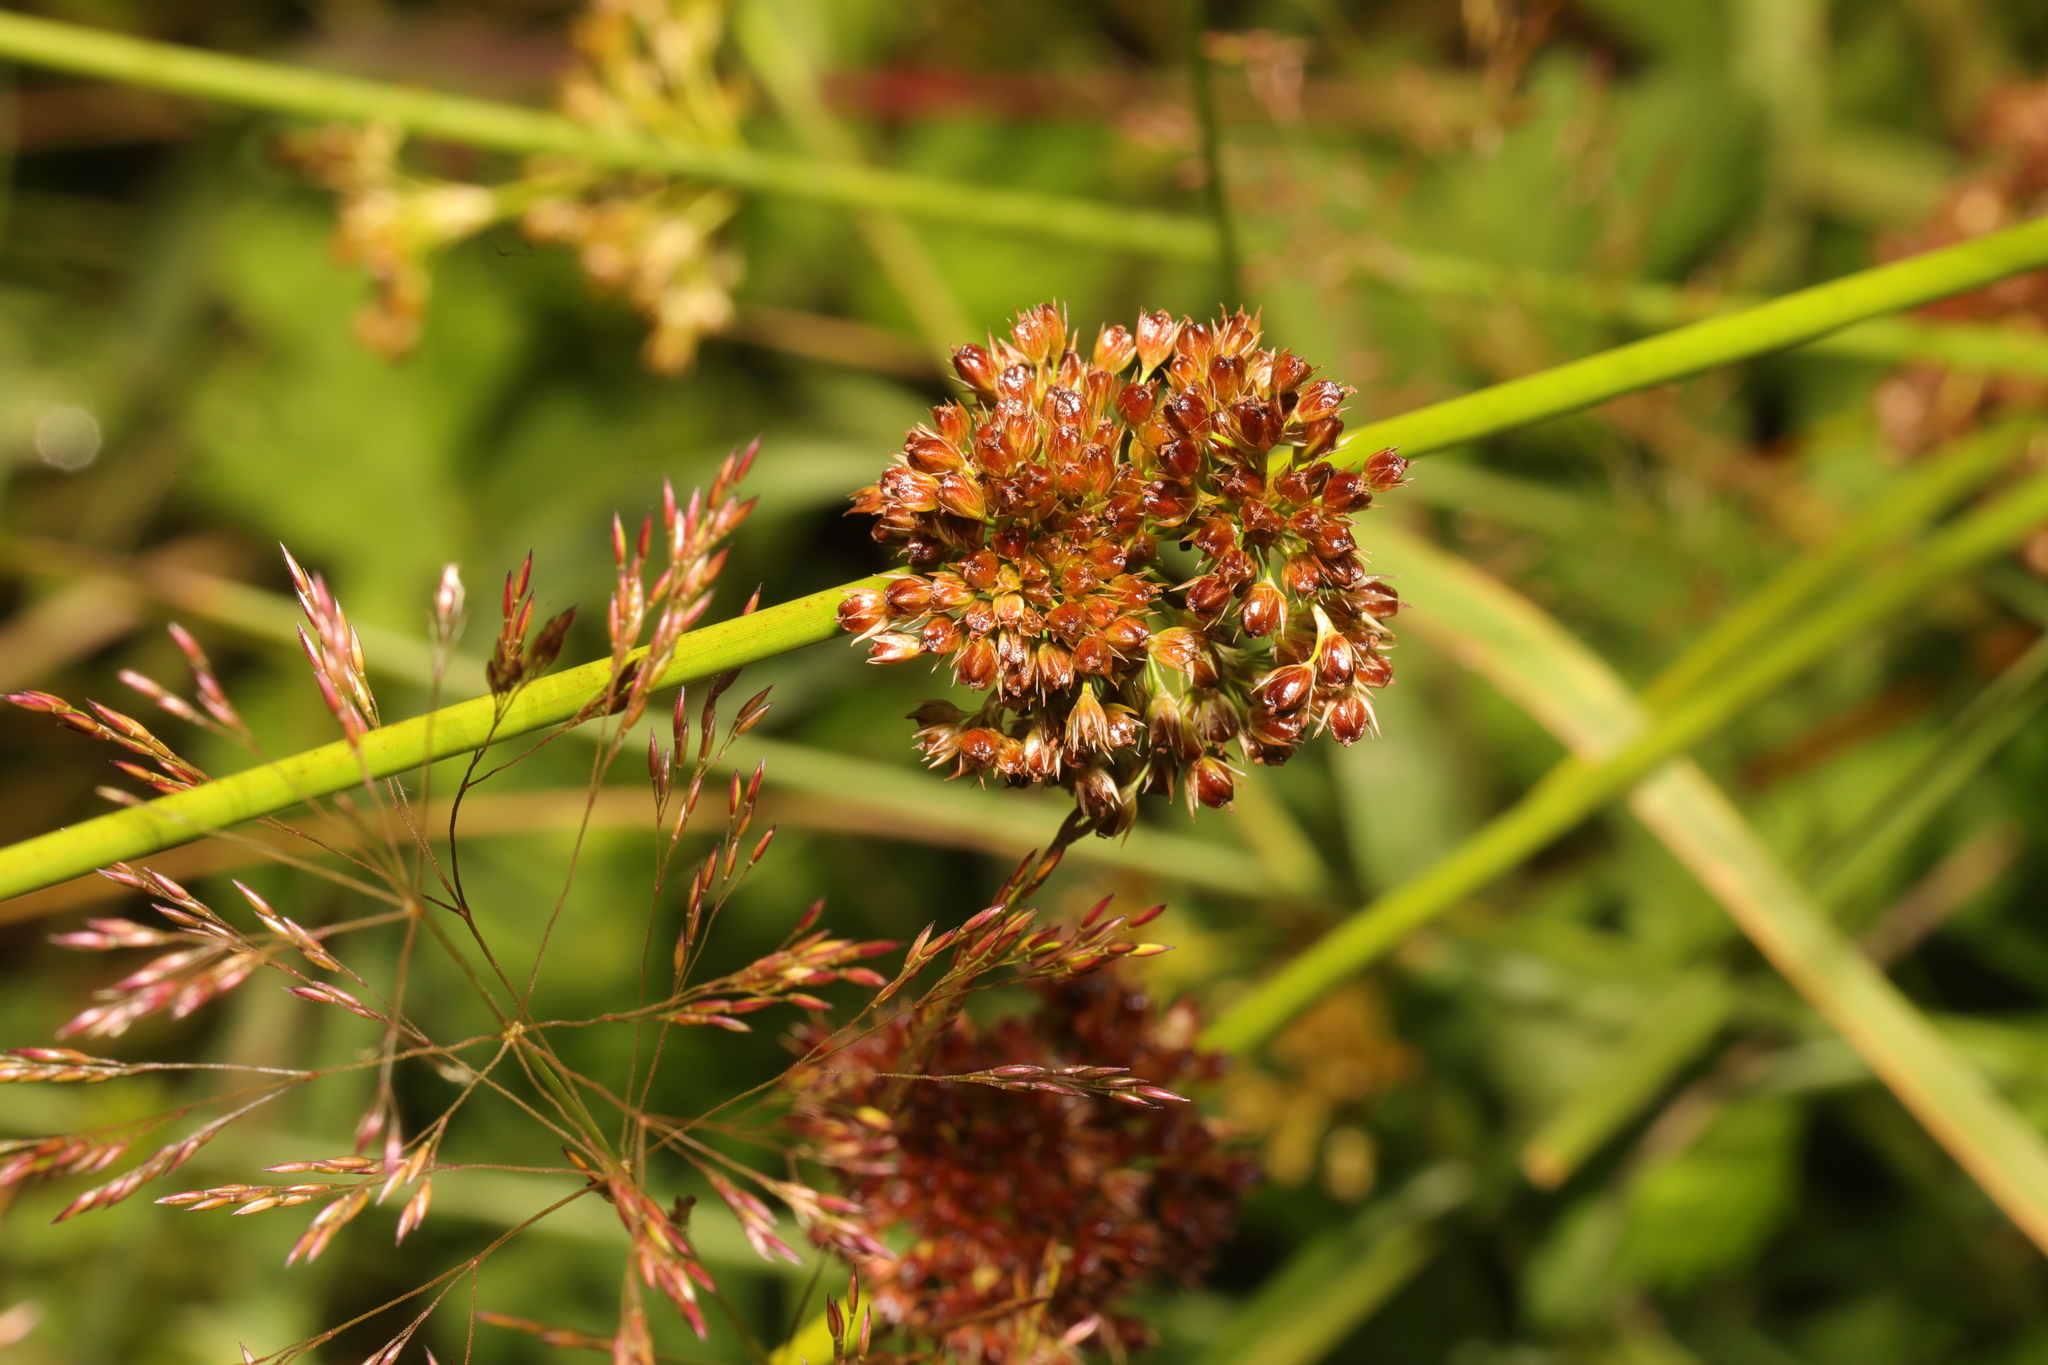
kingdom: Plantae
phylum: Tracheophyta
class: Liliopsida
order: Poales
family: Juncaceae
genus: Juncus
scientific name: Juncus effusus
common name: Soft rush
